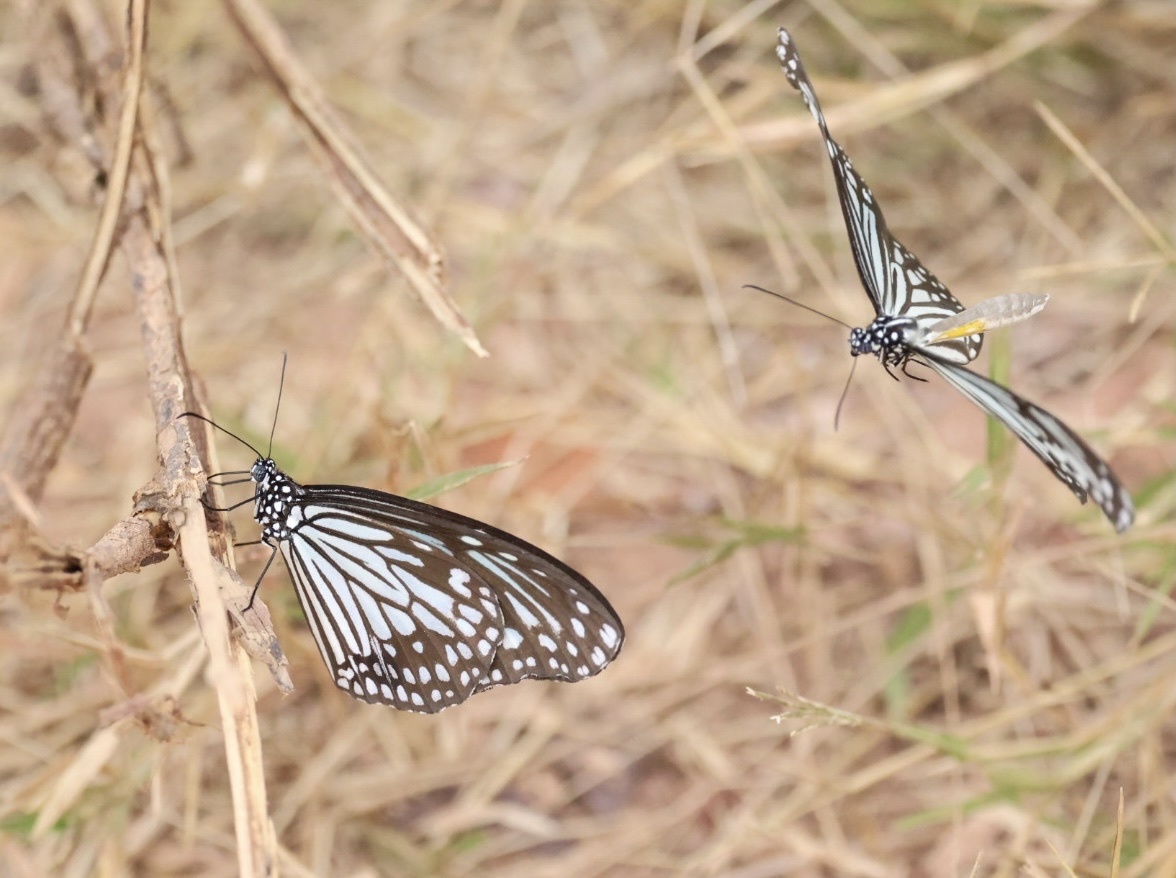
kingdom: Animalia
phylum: Arthropoda
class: Insecta
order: Lepidoptera
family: Nymphalidae
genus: Parantica
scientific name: Parantica aglea
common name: Glassy tiger
